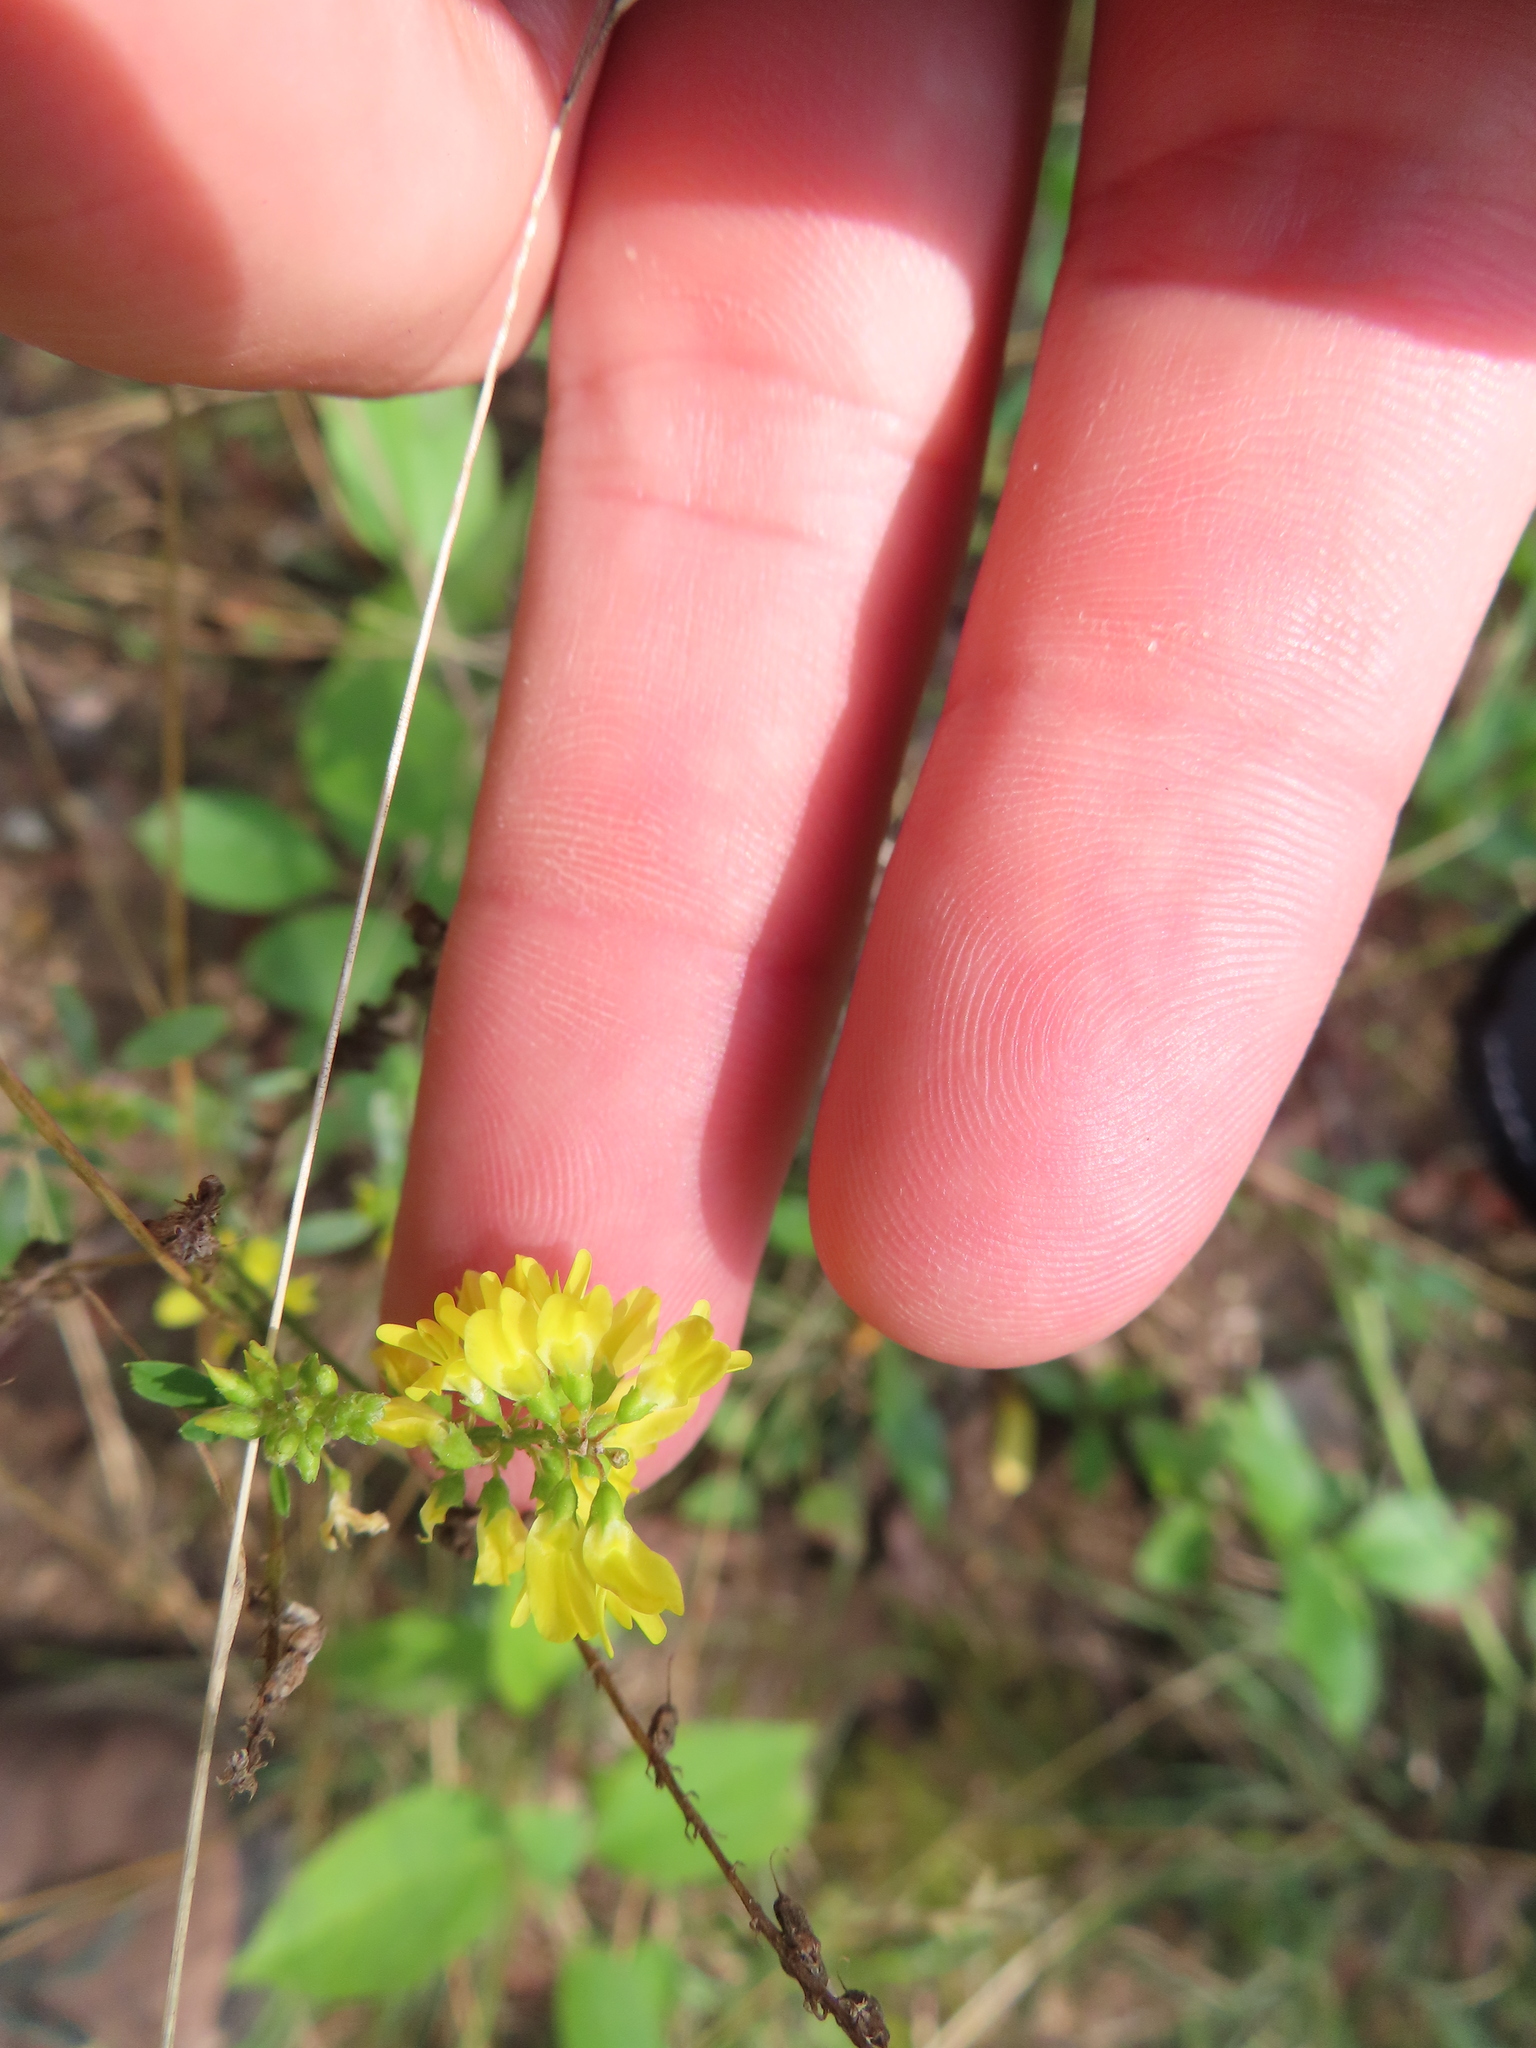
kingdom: Plantae
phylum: Tracheophyta
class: Magnoliopsida
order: Fabales
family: Fabaceae
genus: Melilotus
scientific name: Melilotus officinalis
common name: Sweetclover
